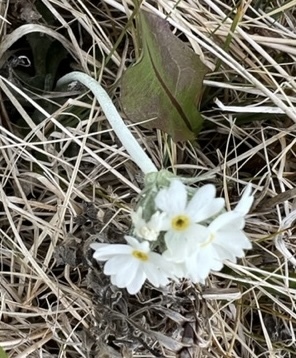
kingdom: Plantae
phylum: Tracheophyta
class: Magnoliopsida
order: Ericales
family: Primulaceae
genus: Primula
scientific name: Primula magellanica
